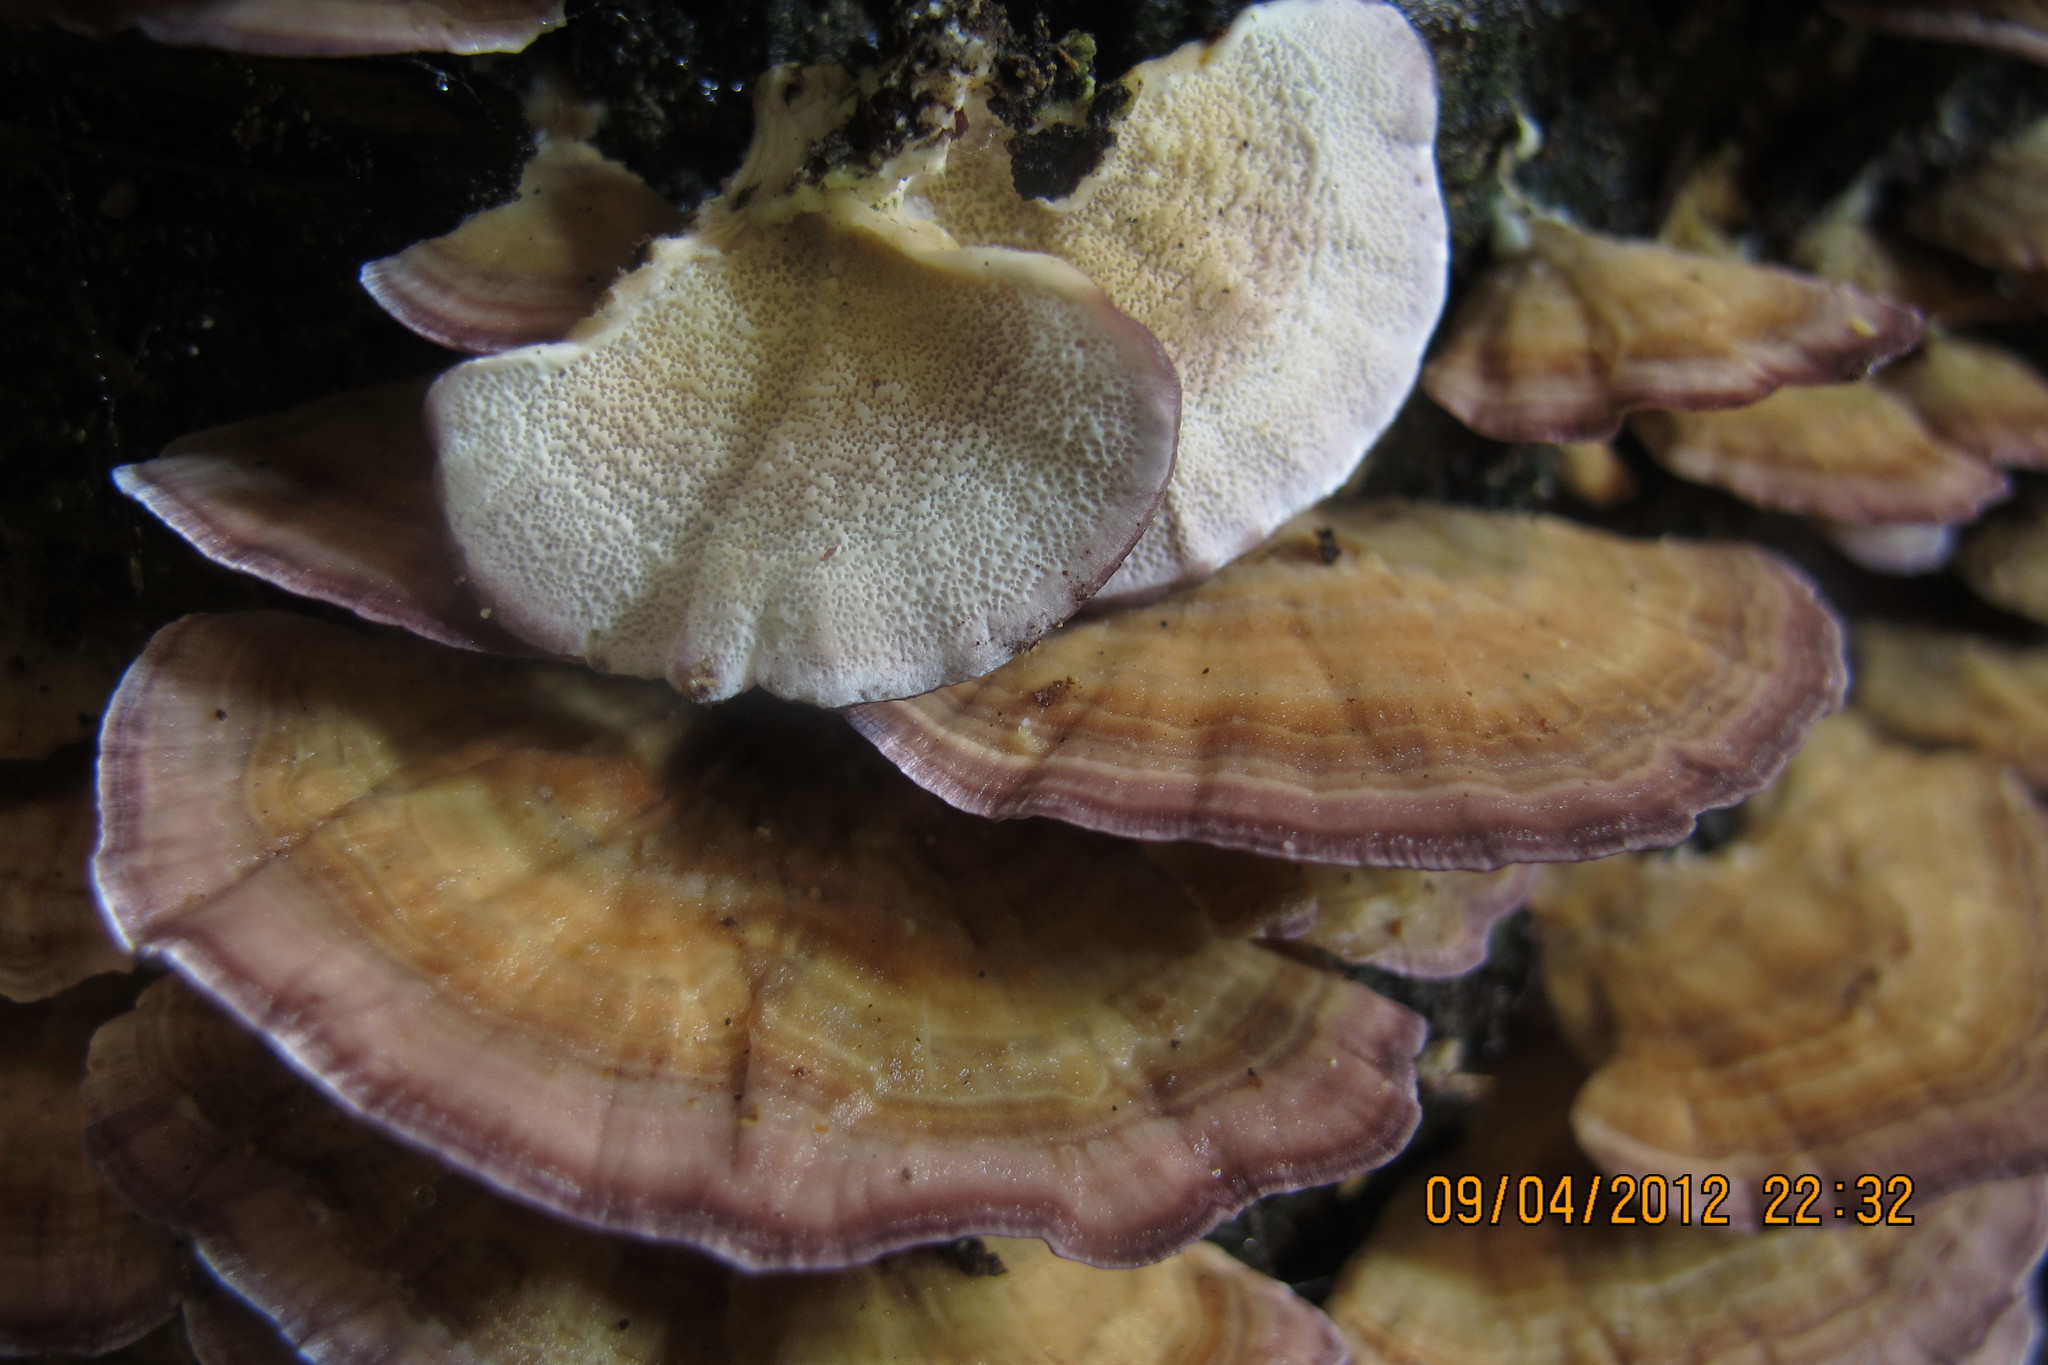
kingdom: Fungi
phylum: Basidiomycota
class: Agaricomycetes
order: Hymenochaetales
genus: Trichaptum
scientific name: Trichaptum biforme
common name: Violet-toothed polypore
